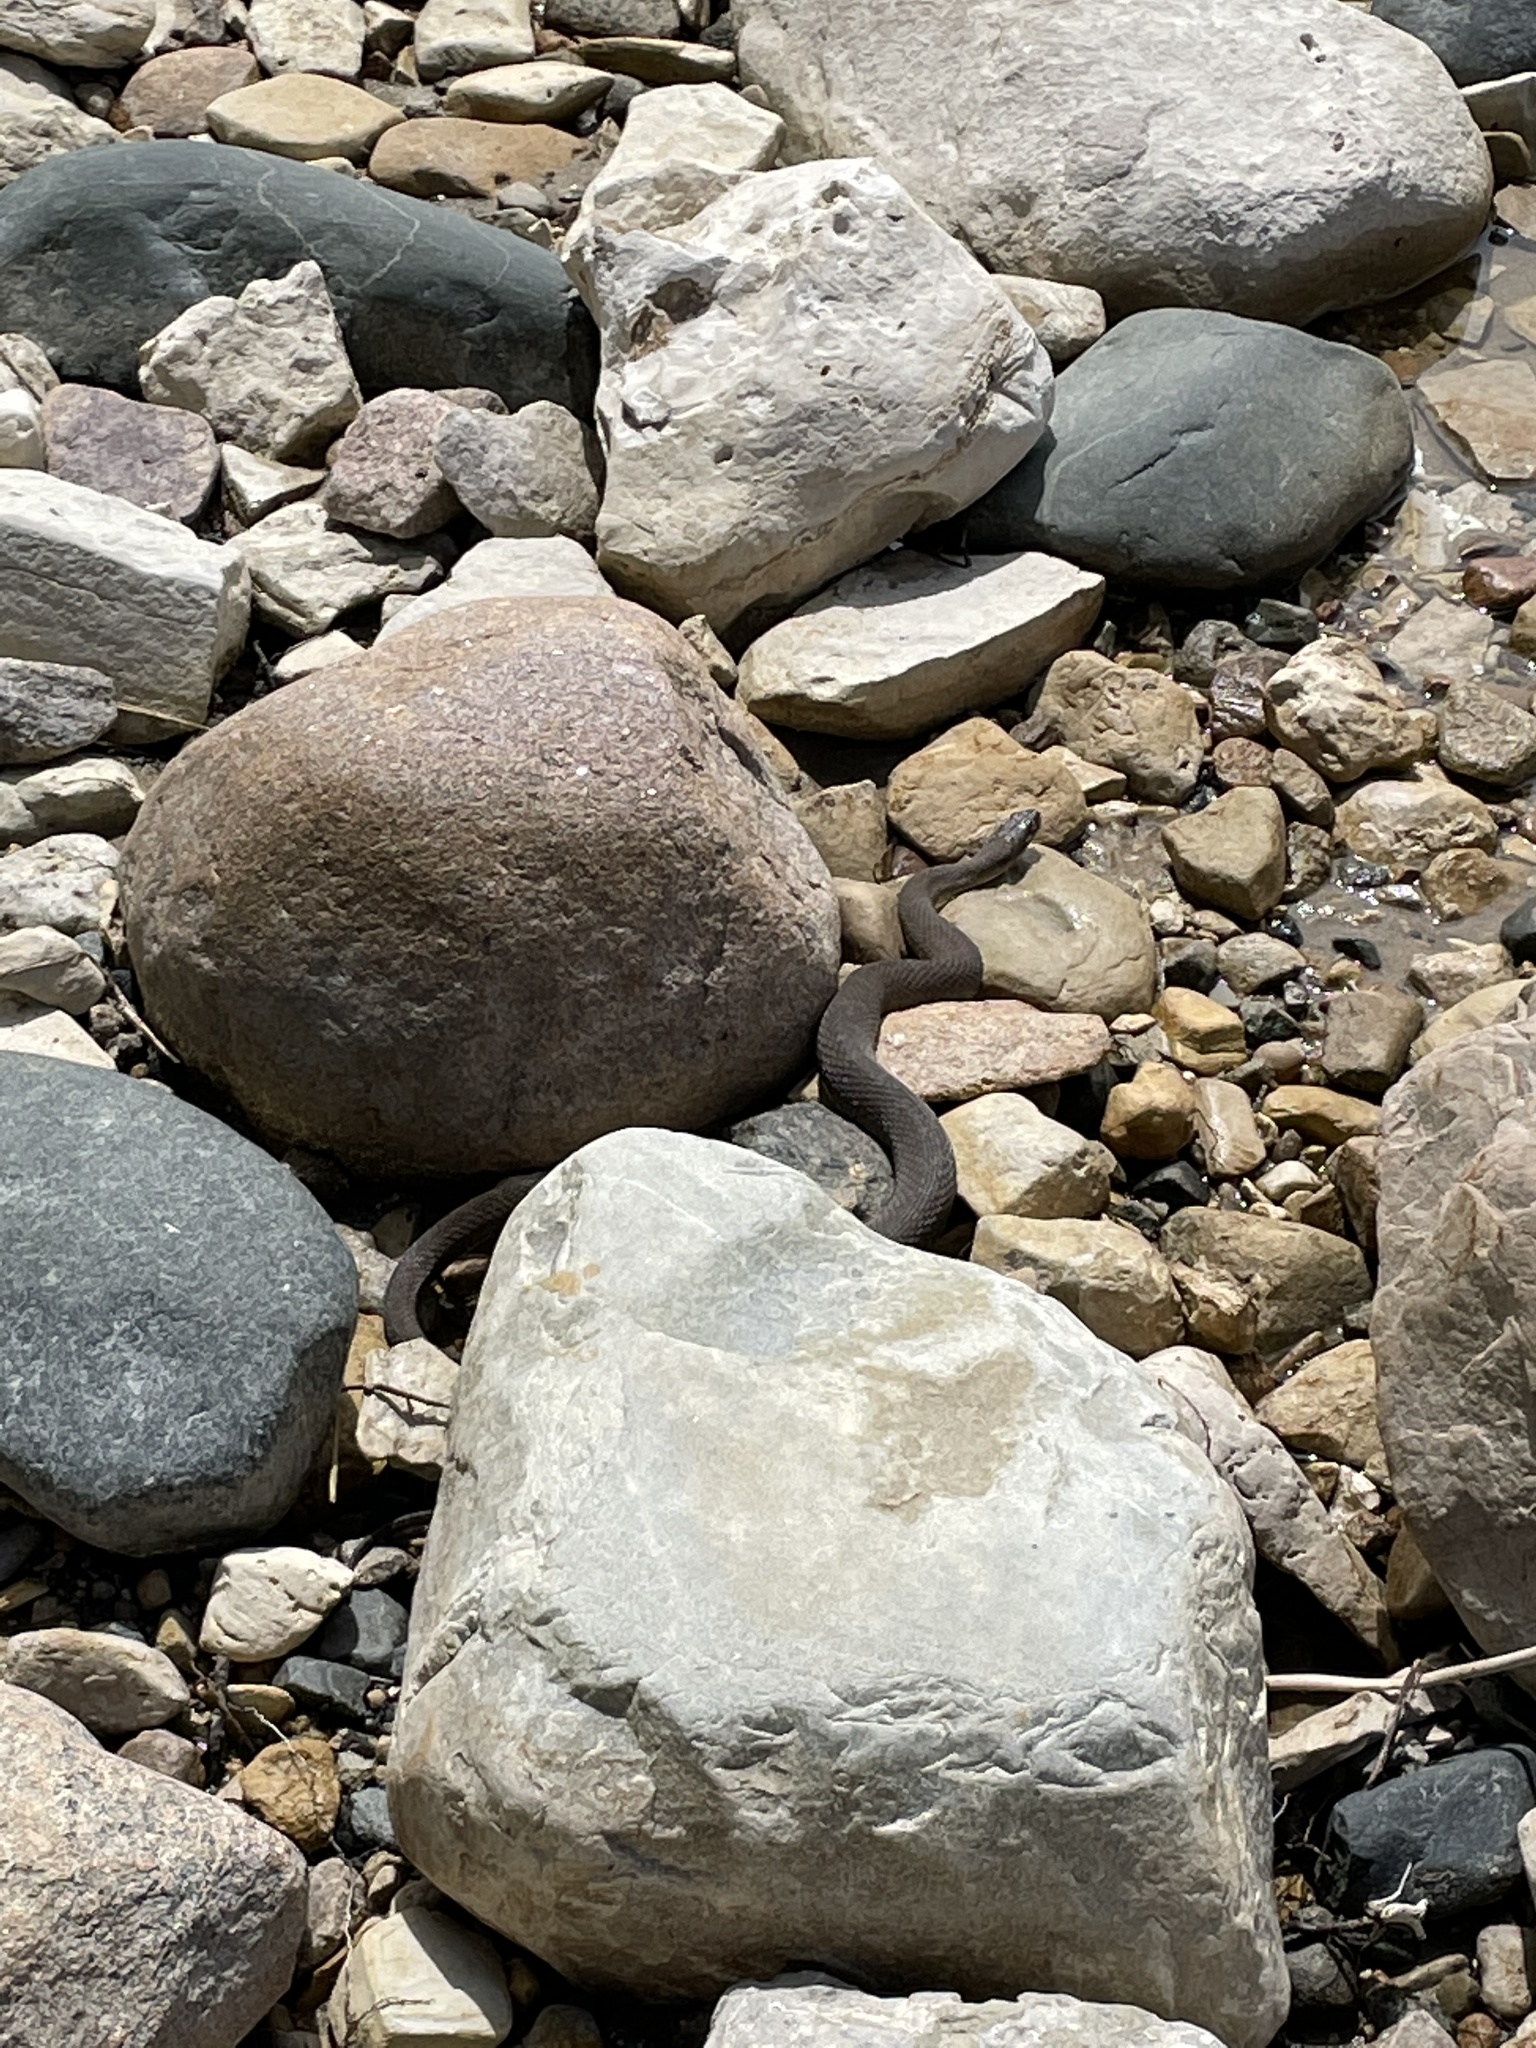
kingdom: Animalia
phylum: Chordata
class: Squamata
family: Colubridae
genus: Nerodia
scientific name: Nerodia sipedon
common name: Northern water snake
